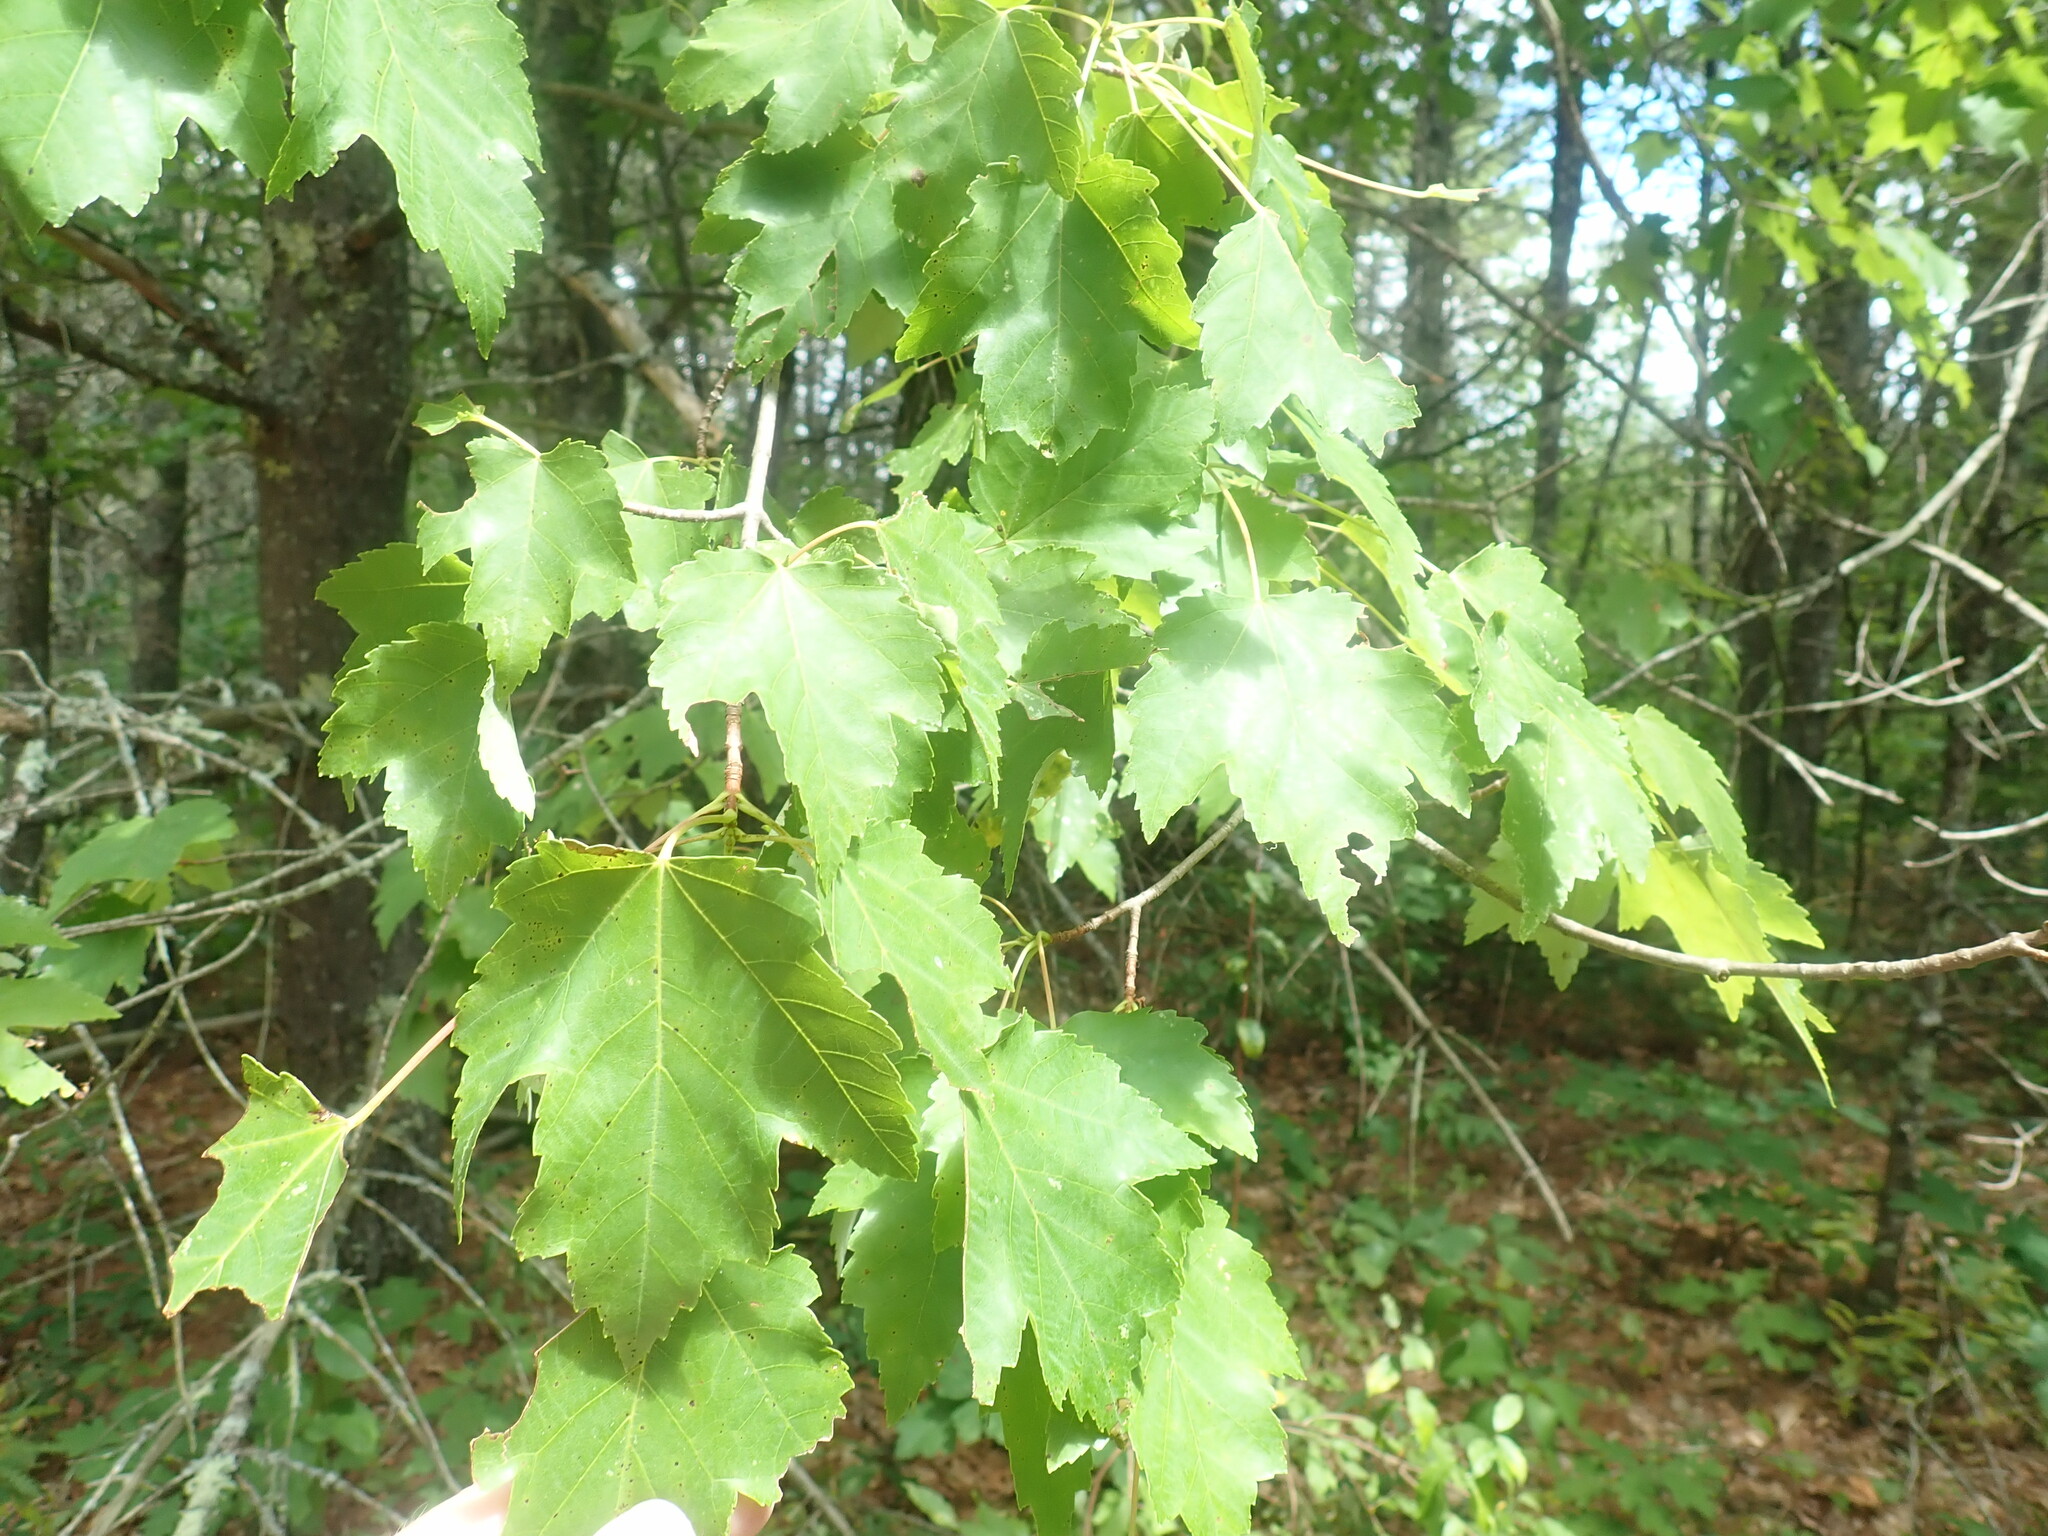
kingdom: Plantae
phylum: Tracheophyta
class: Magnoliopsida
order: Sapindales
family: Sapindaceae
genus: Acer
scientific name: Acer rubrum
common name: Red maple
